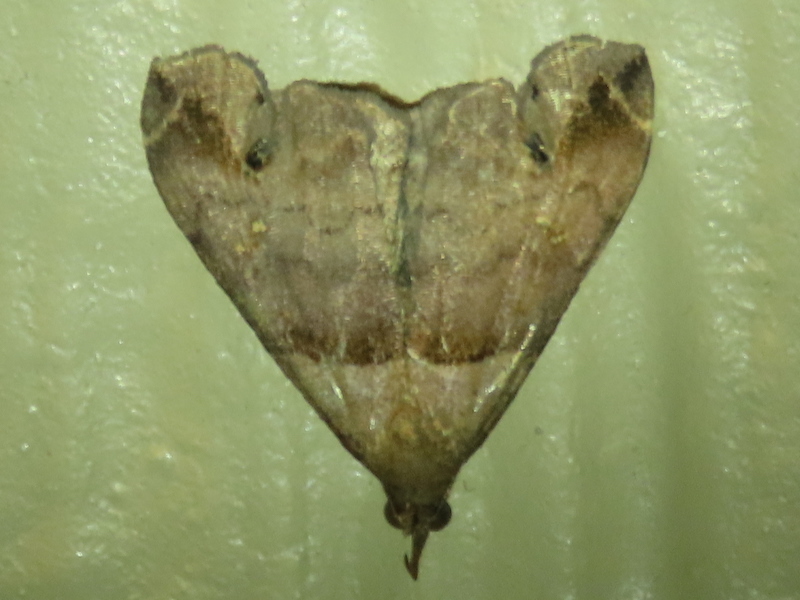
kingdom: Animalia
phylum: Arthropoda
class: Insecta
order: Lepidoptera
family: Erebidae
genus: Lascoria
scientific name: Lascoria ambigualis
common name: Ambiguous moth
